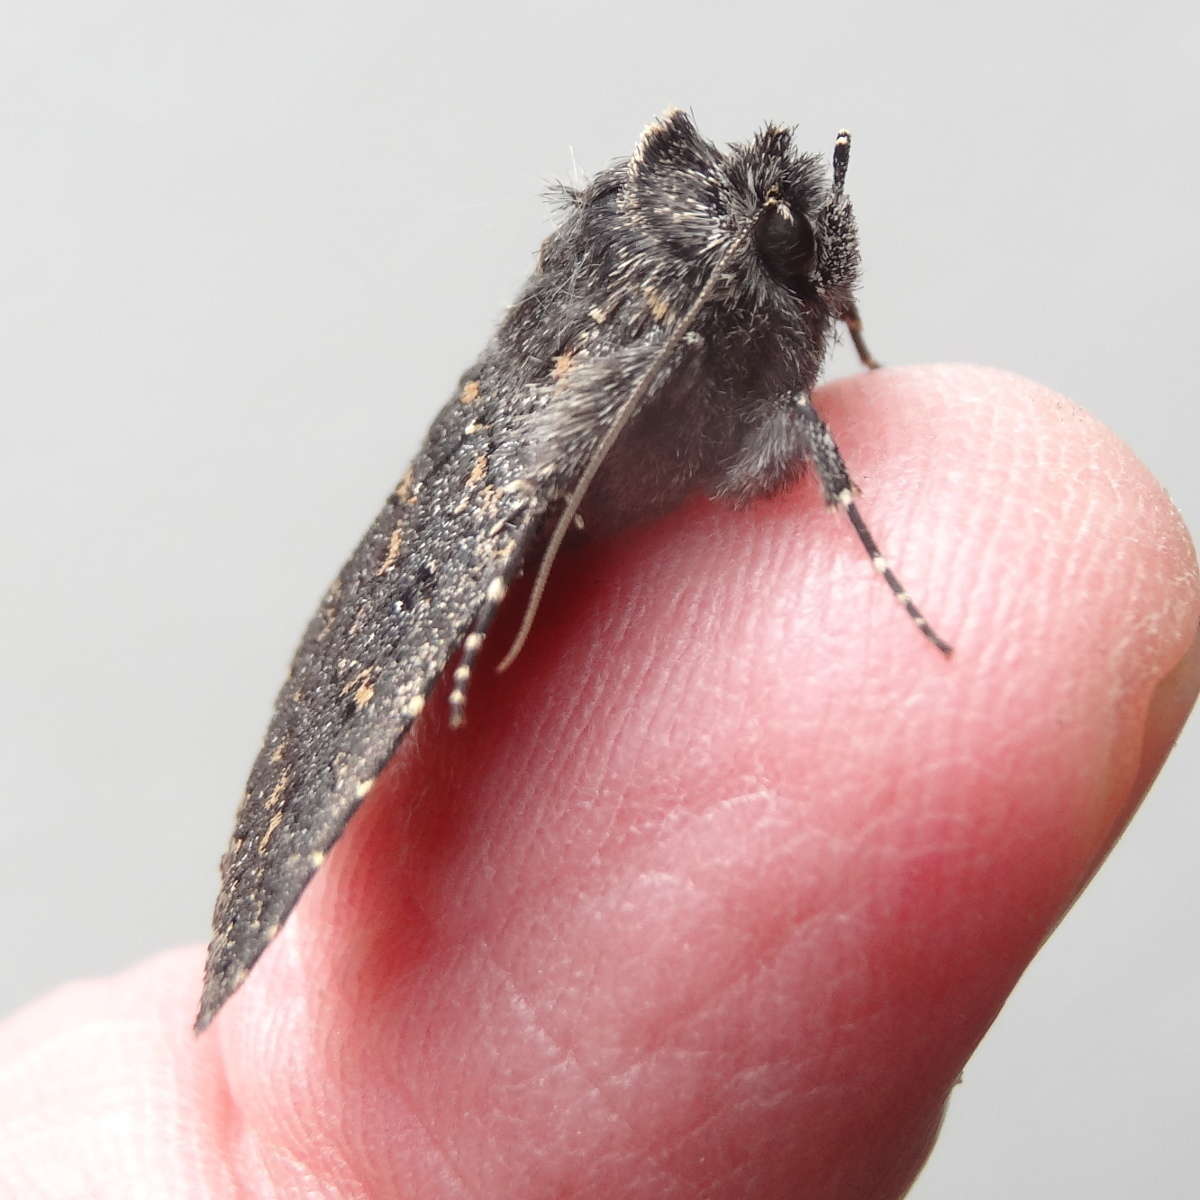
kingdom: Animalia
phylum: Arthropoda
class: Insecta
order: Lepidoptera
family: Erebidae
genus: Praxis
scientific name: Praxis edwardsii
